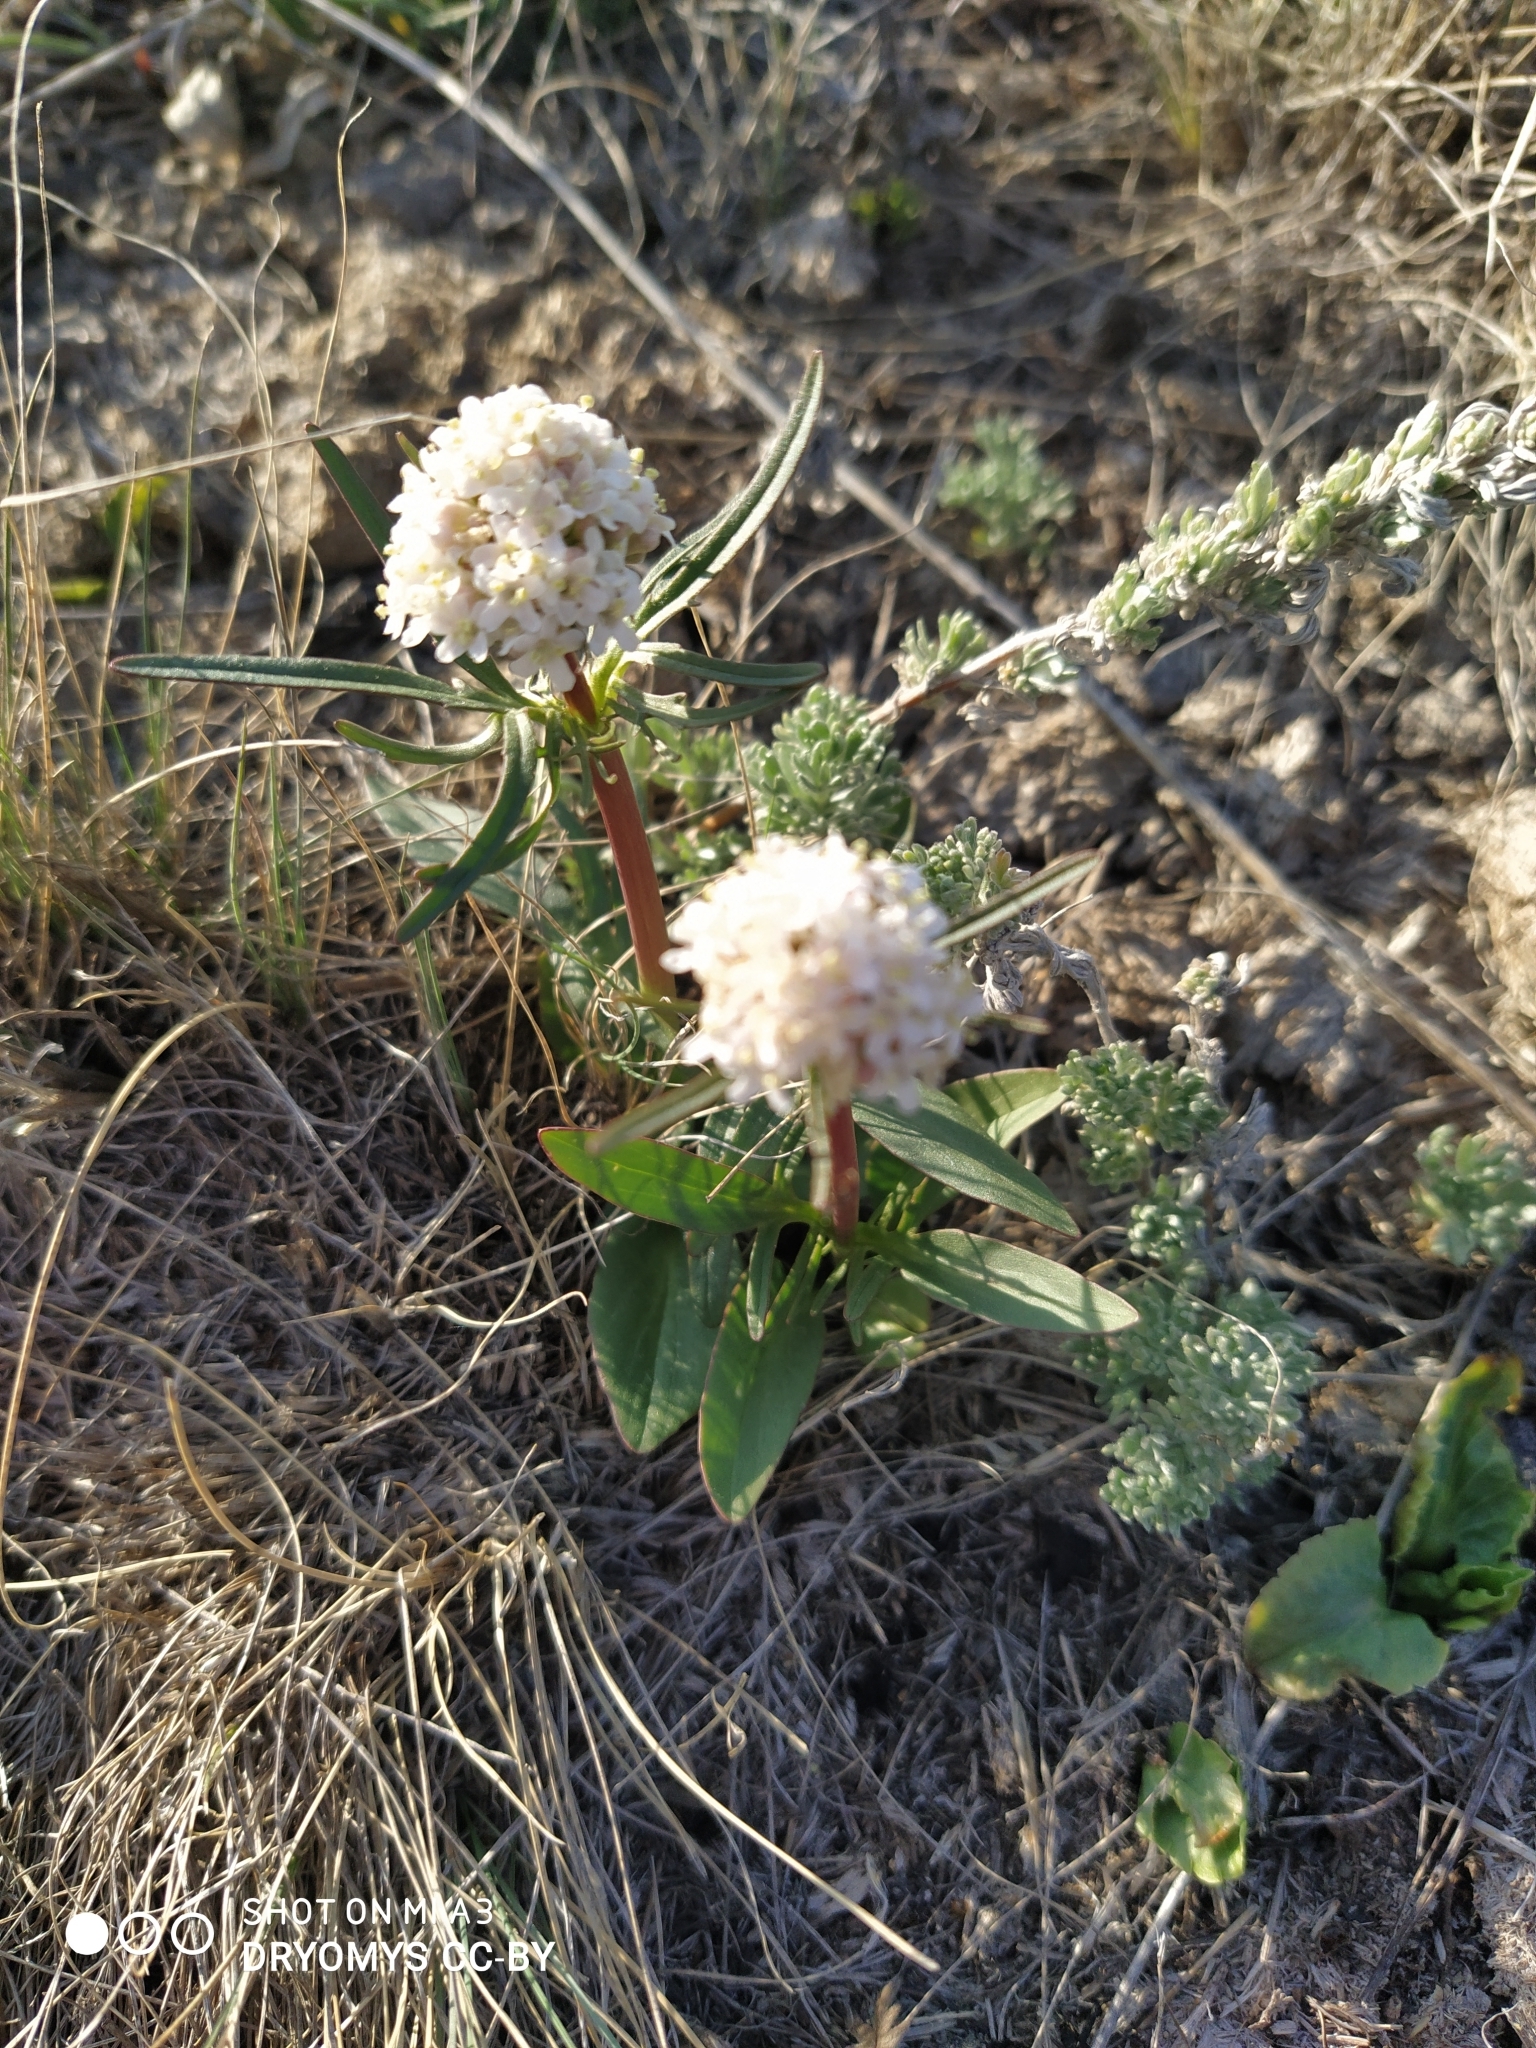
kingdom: Plantae
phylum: Tracheophyta
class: Magnoliopsida
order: Dipsacales
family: Caprifoliaceae
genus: Valeriana
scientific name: Valeriana tuberosa
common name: Tuberous valerian
